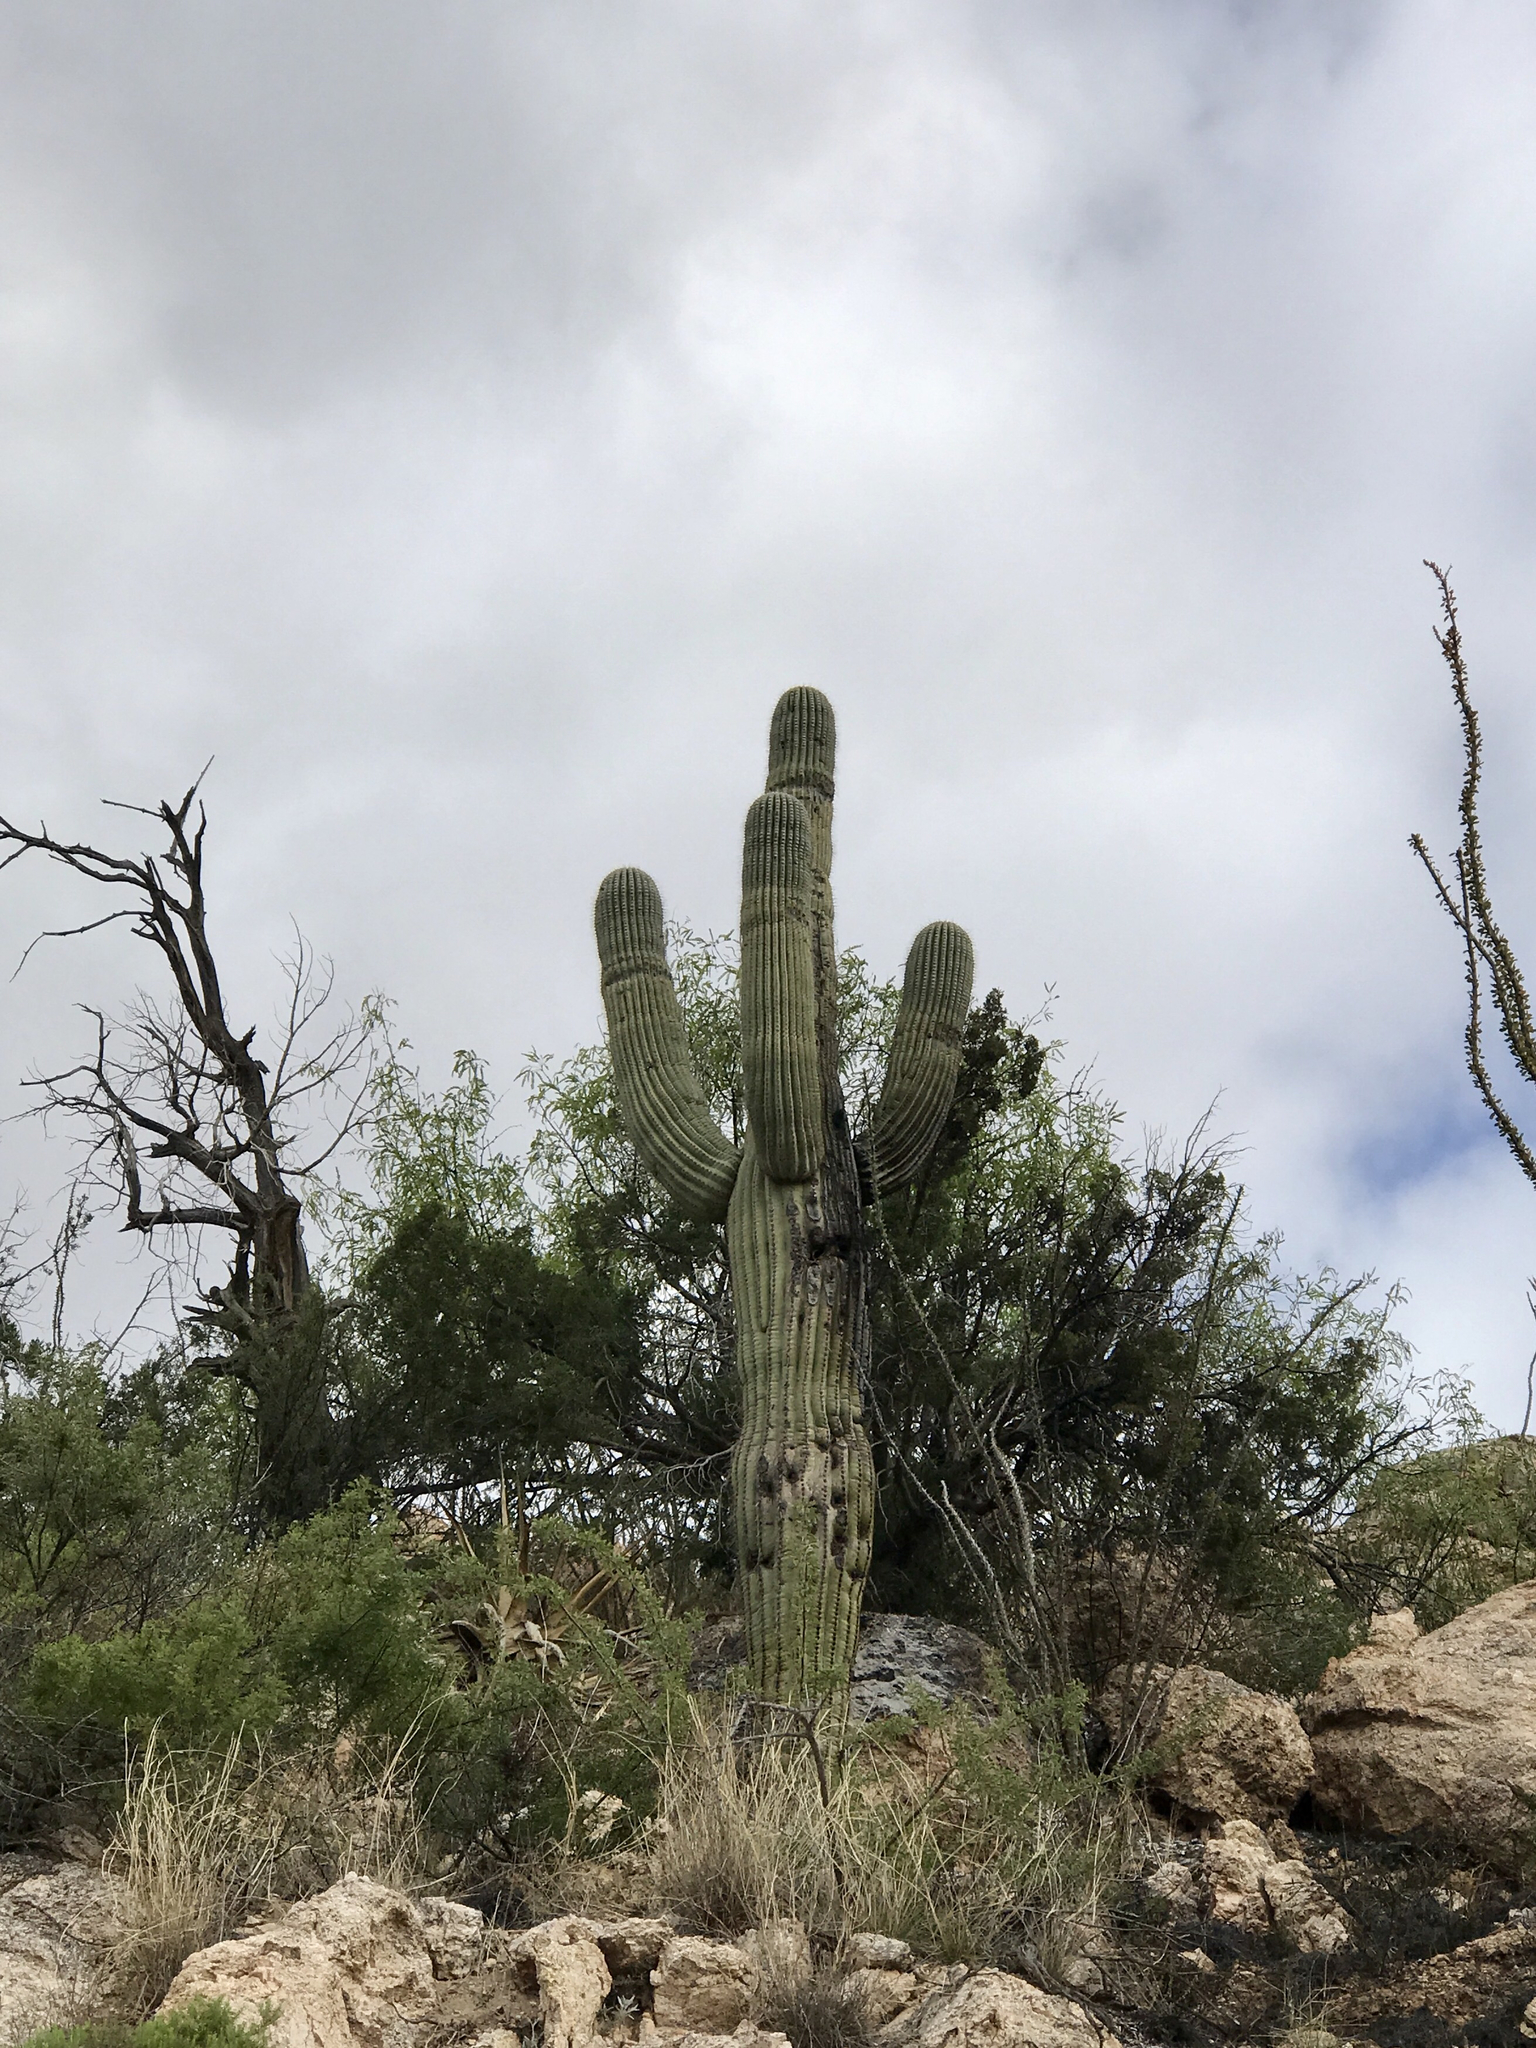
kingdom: Plantae
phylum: Tracheophyta
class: Magnoliopsida
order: Caryophyllales
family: Cactaceae
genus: Carnegiea
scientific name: Carnegiea gigantea
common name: Saguaro
